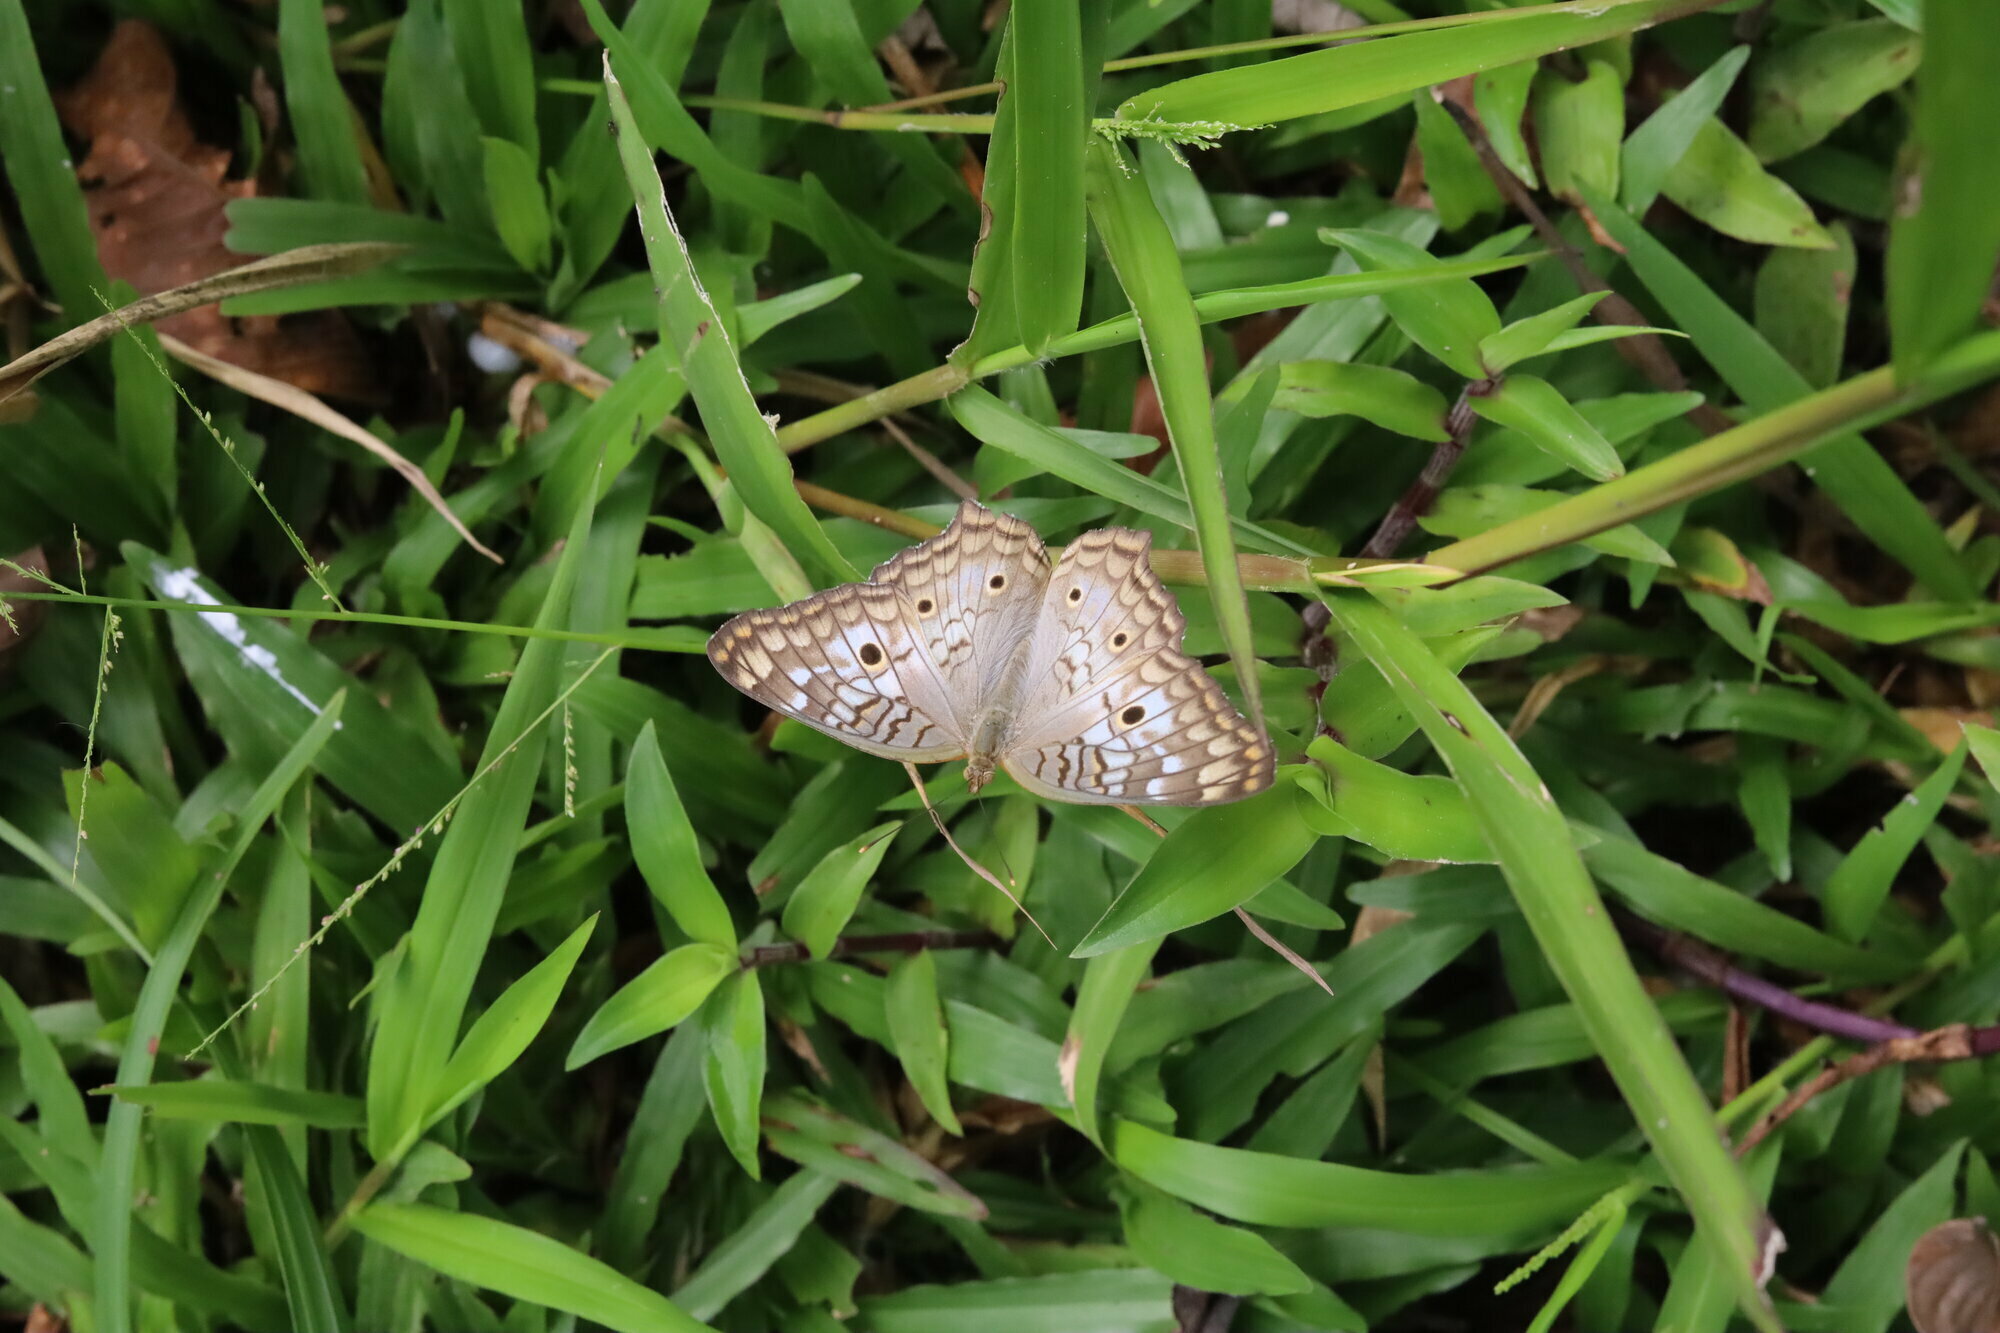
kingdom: Animalia
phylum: Arthropoda
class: Insecta
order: Lepidoptera
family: Nymphalidae
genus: Anartia
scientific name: Anartia jatrophae
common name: White peacock
